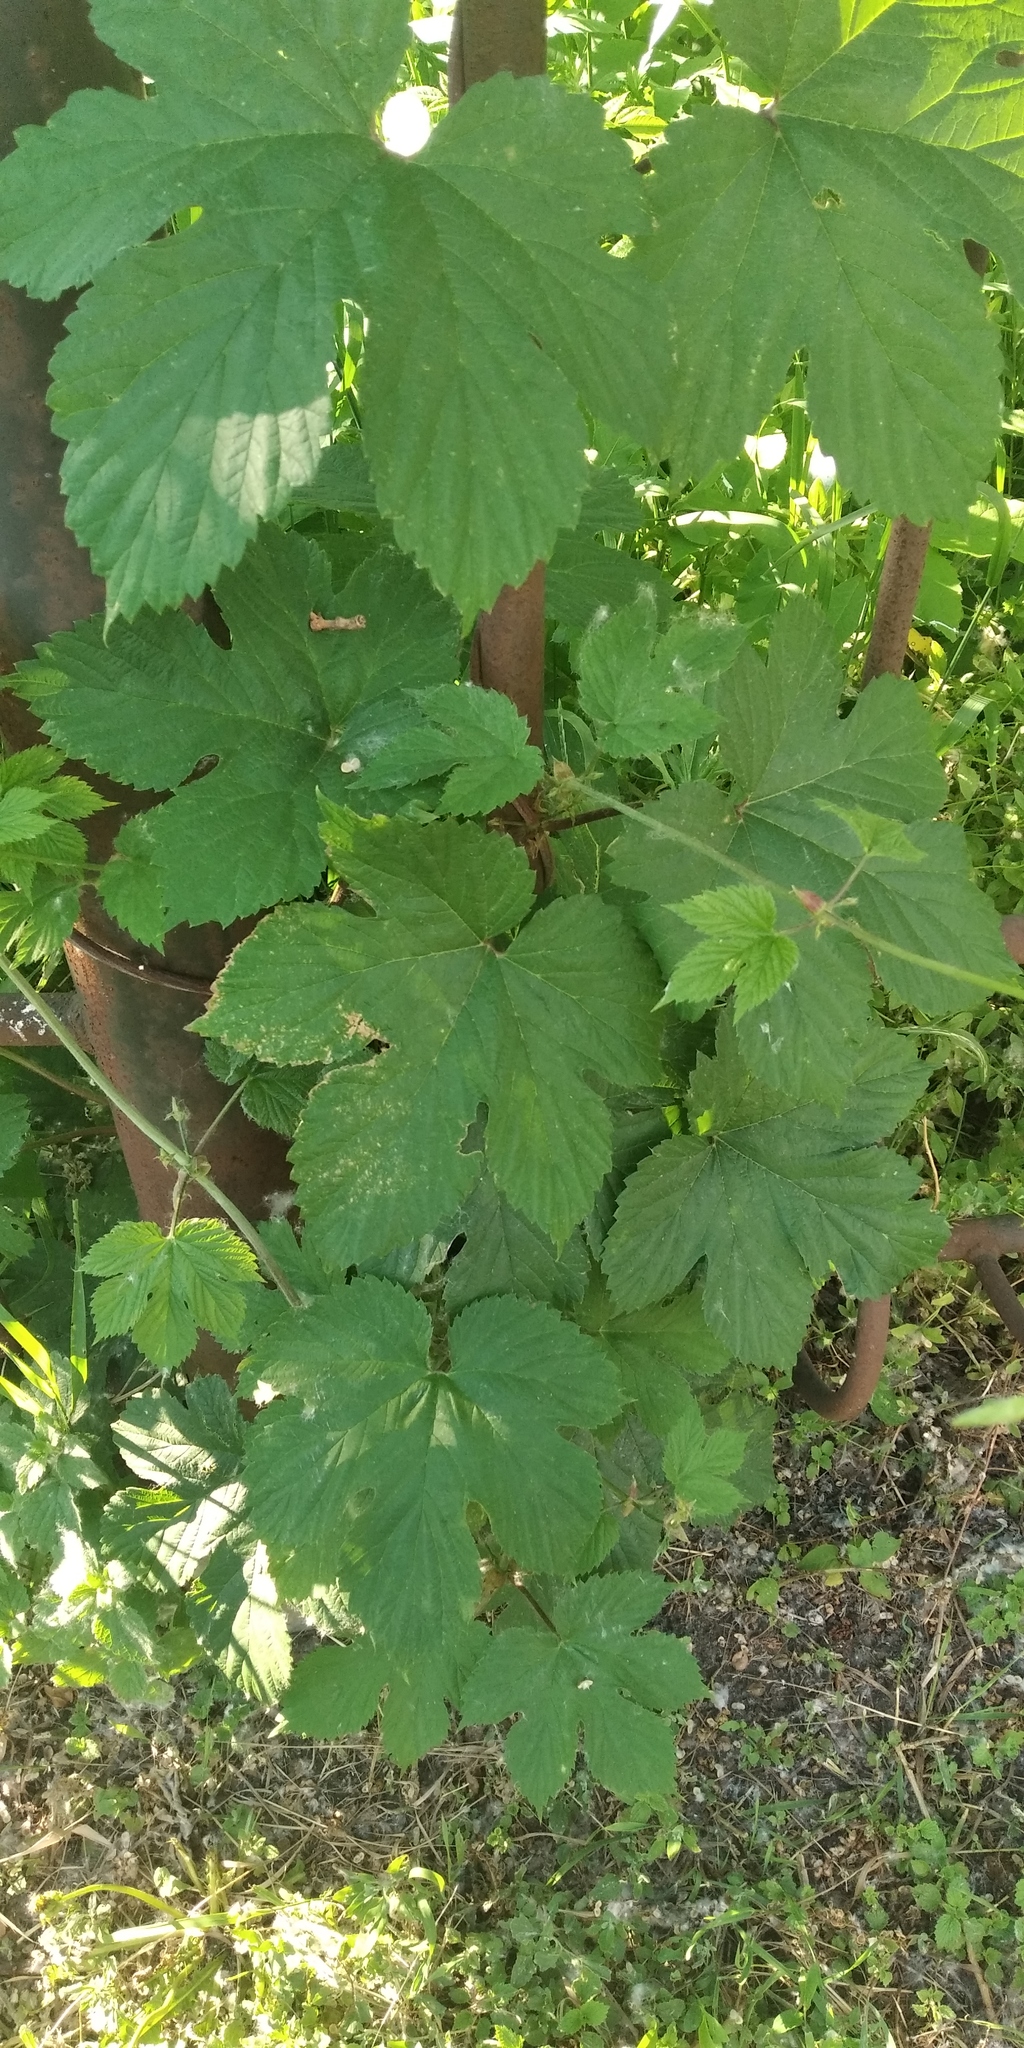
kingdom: Plantae
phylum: Tracheophyta
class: Magnoliopsida
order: Rosales
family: Cannabaceae
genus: Humulus
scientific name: Humulus lupulus
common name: Hop
